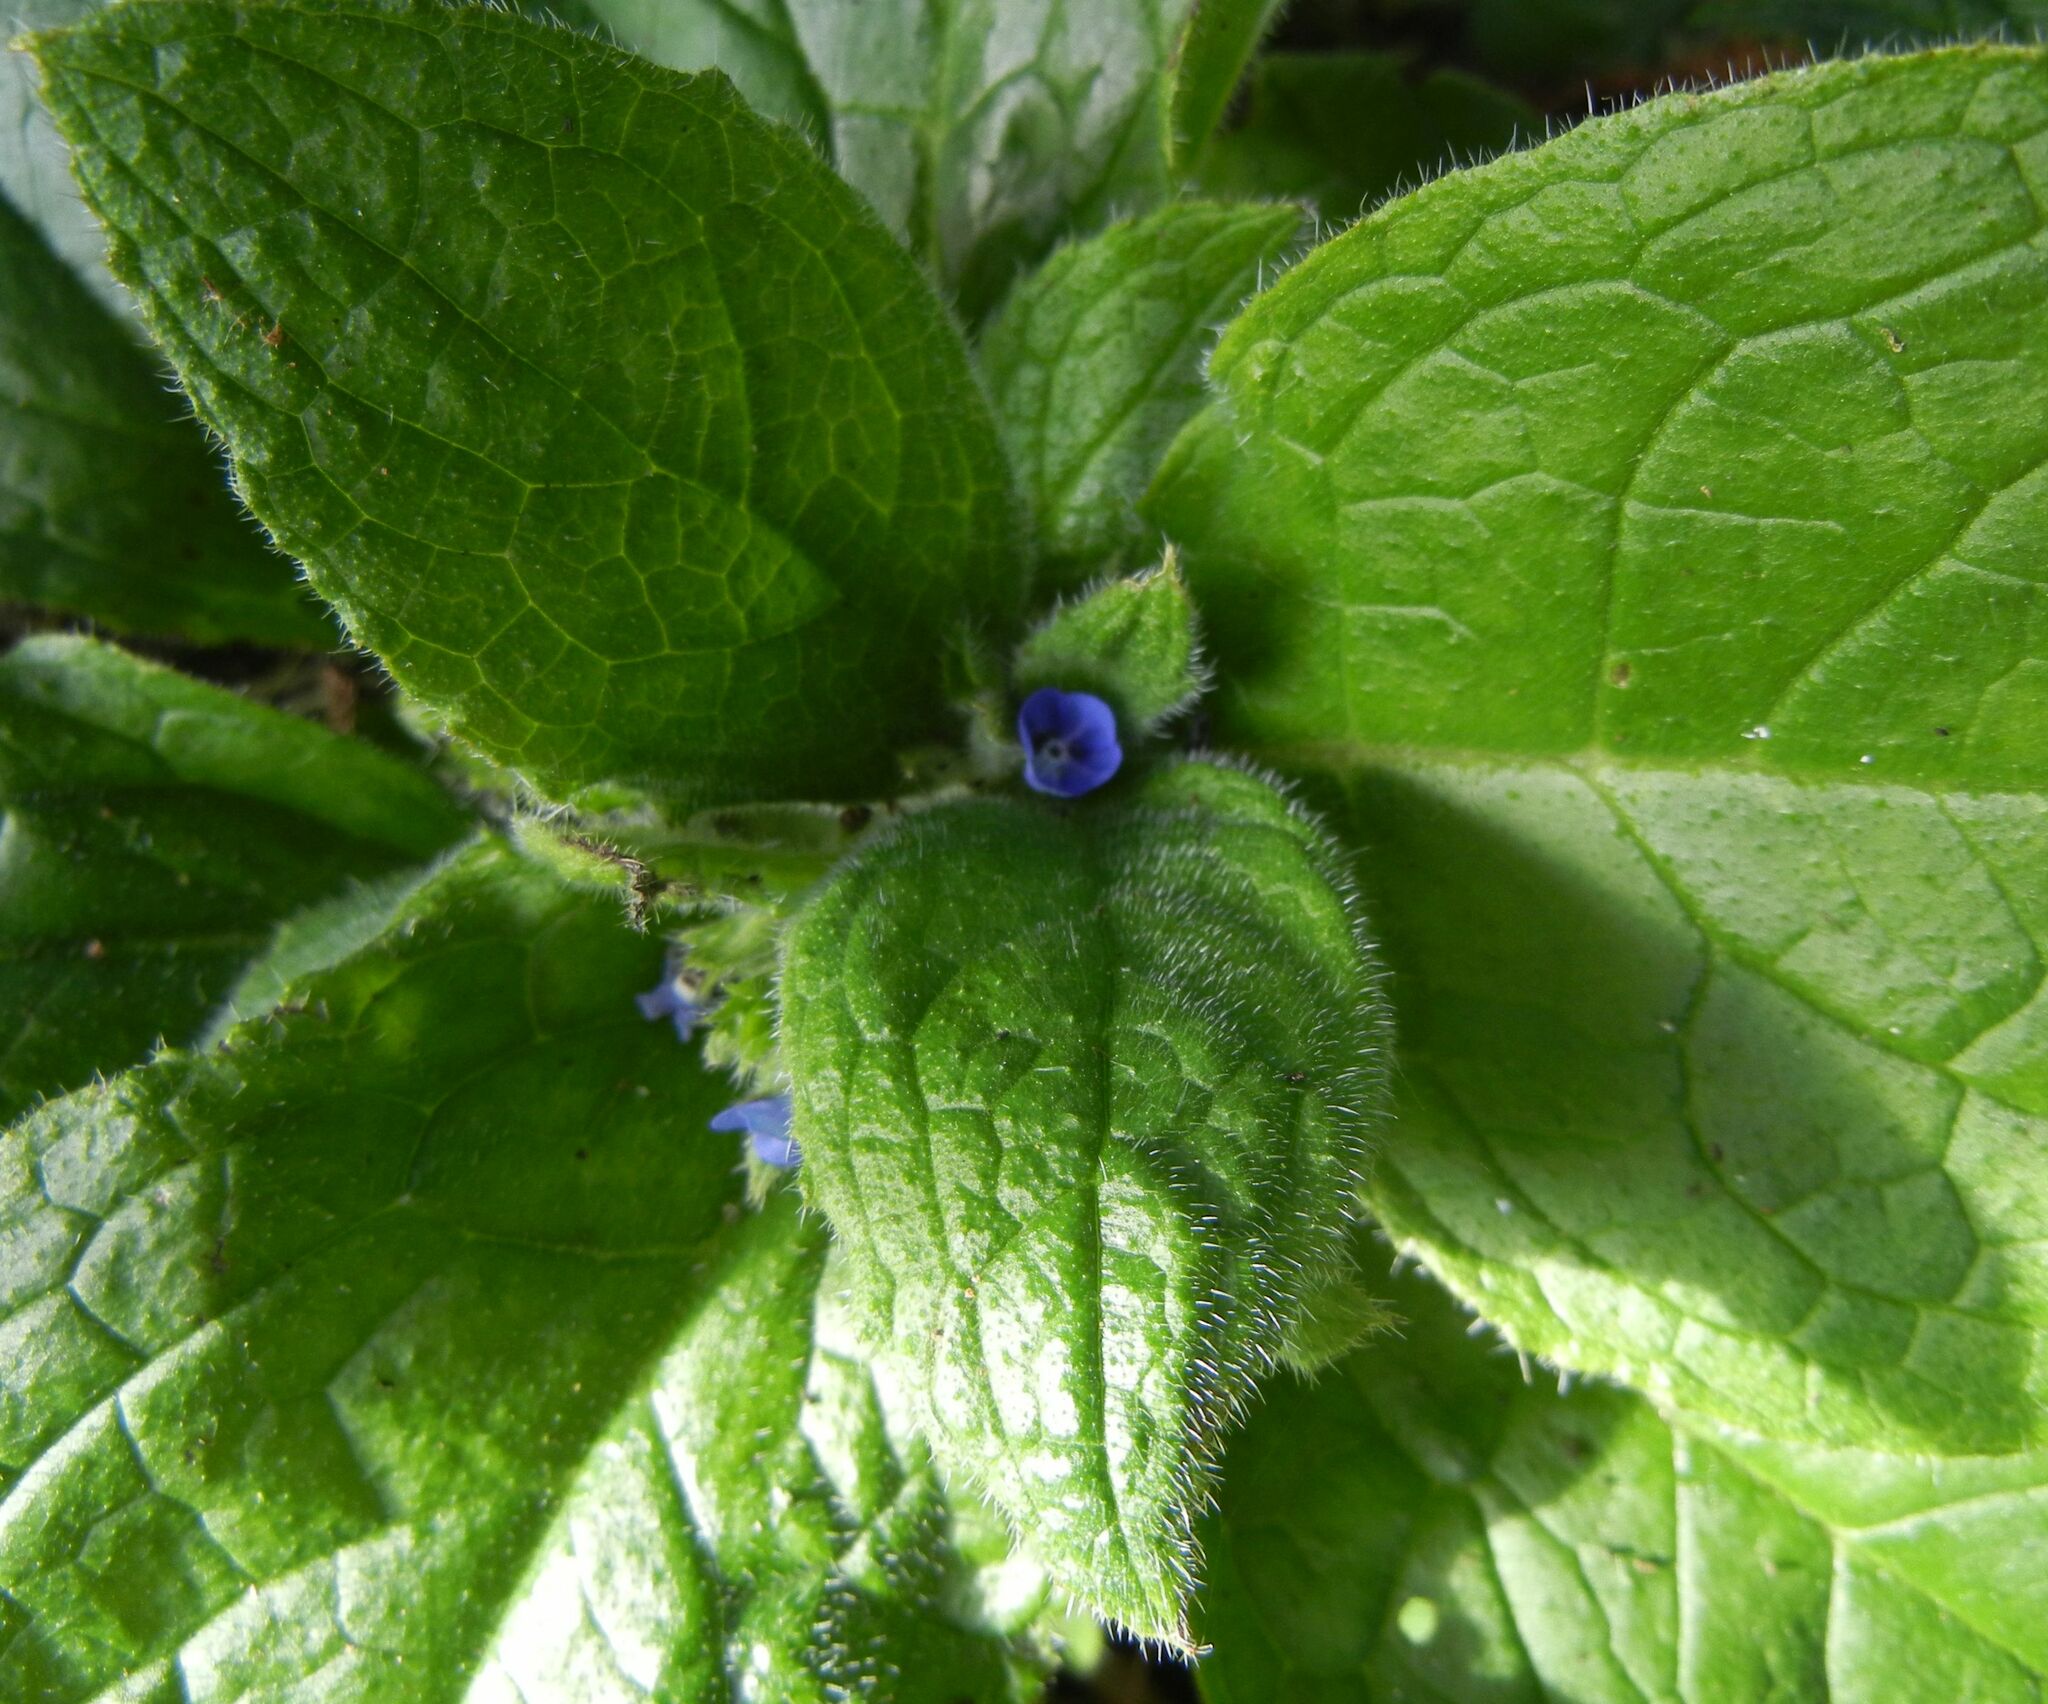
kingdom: Plantae
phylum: Tracheophyta
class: Magnoliopsida
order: Boraginales
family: Boraginaceae
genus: Pentaglottis
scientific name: Pentaglottis sempervirens
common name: Green alkanet
